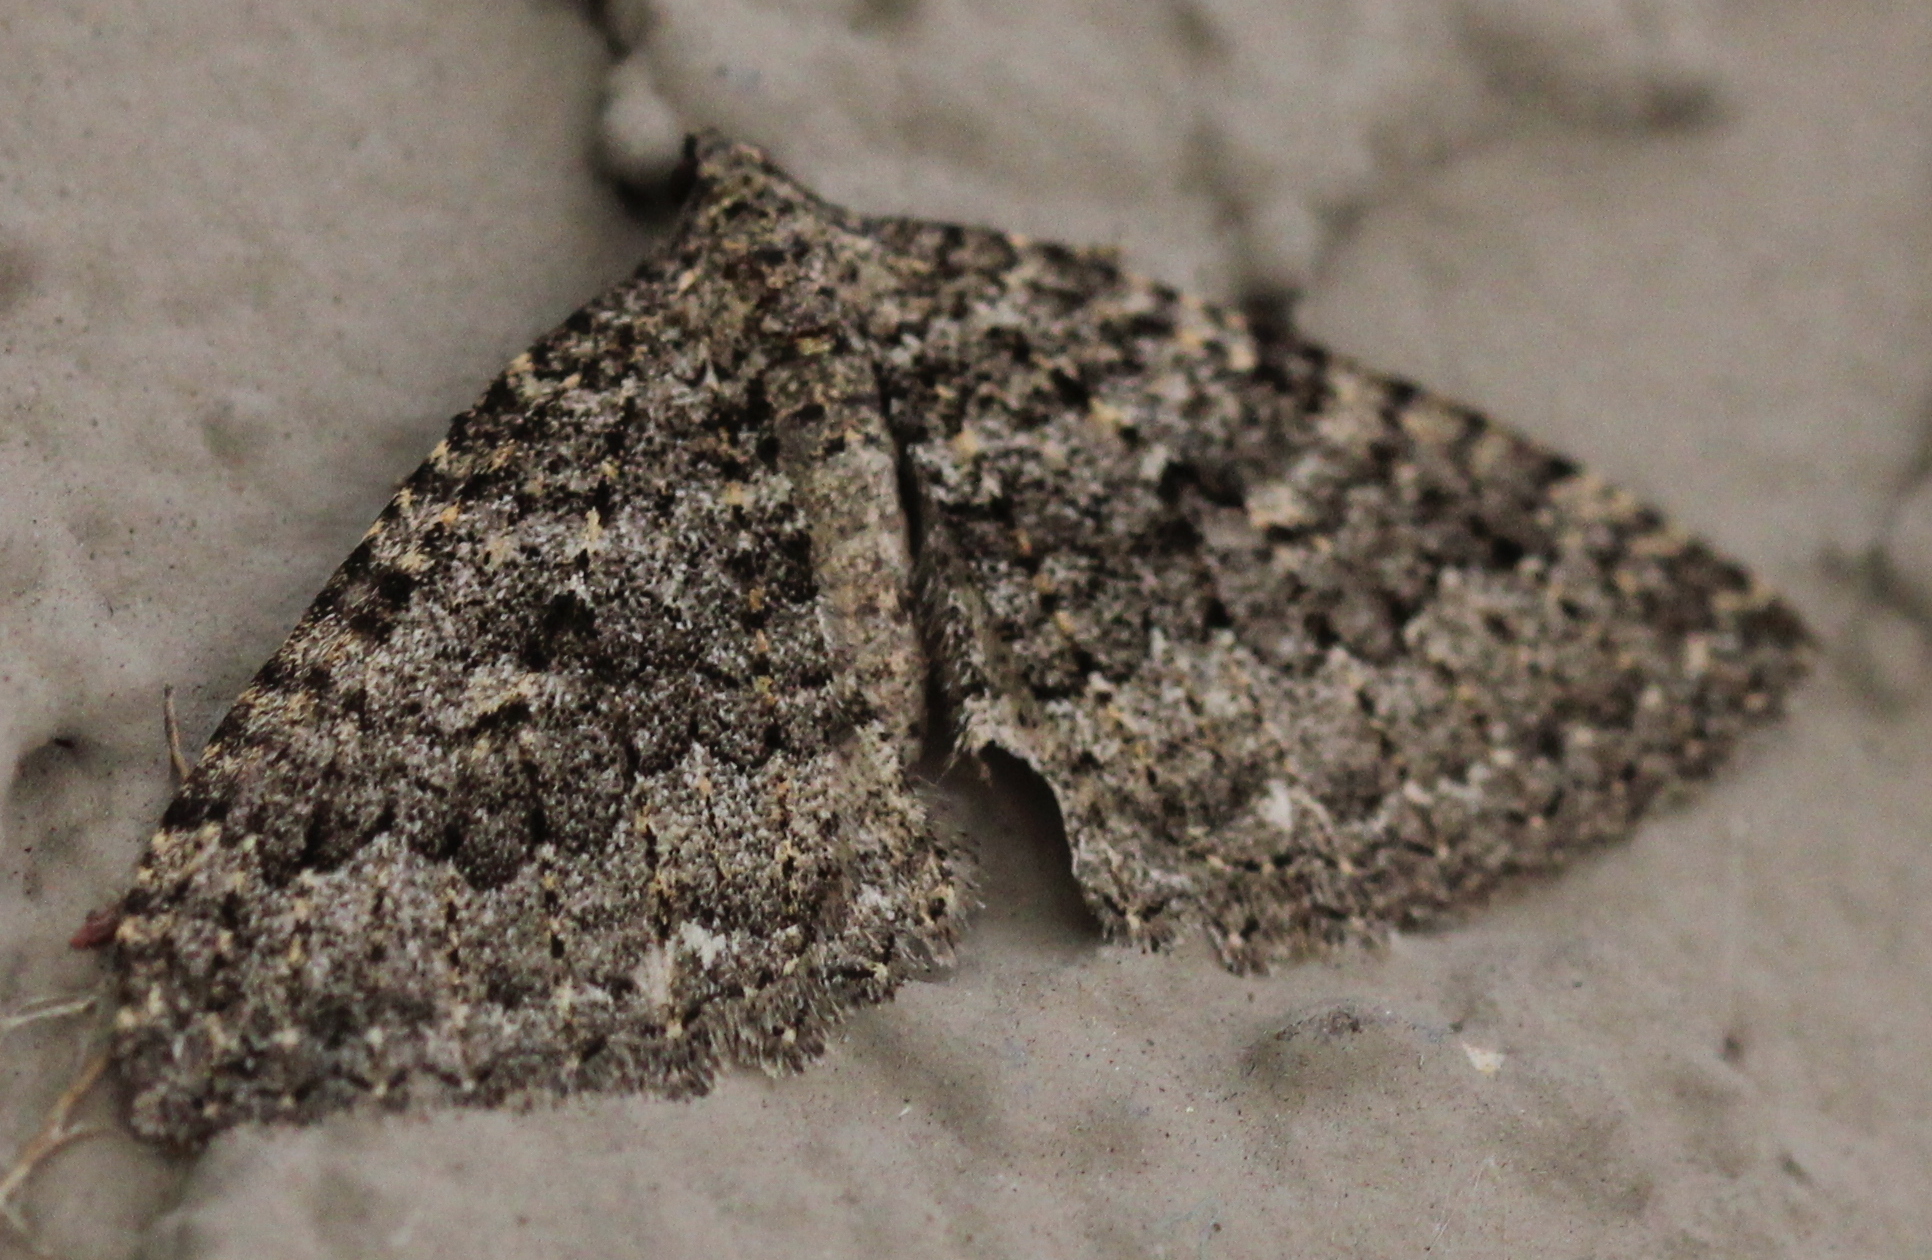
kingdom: Animalia
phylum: Arthropoda
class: Insecta
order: Lepidoptera
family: Geometridae
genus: Triphosa
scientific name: Triphosa californiata
